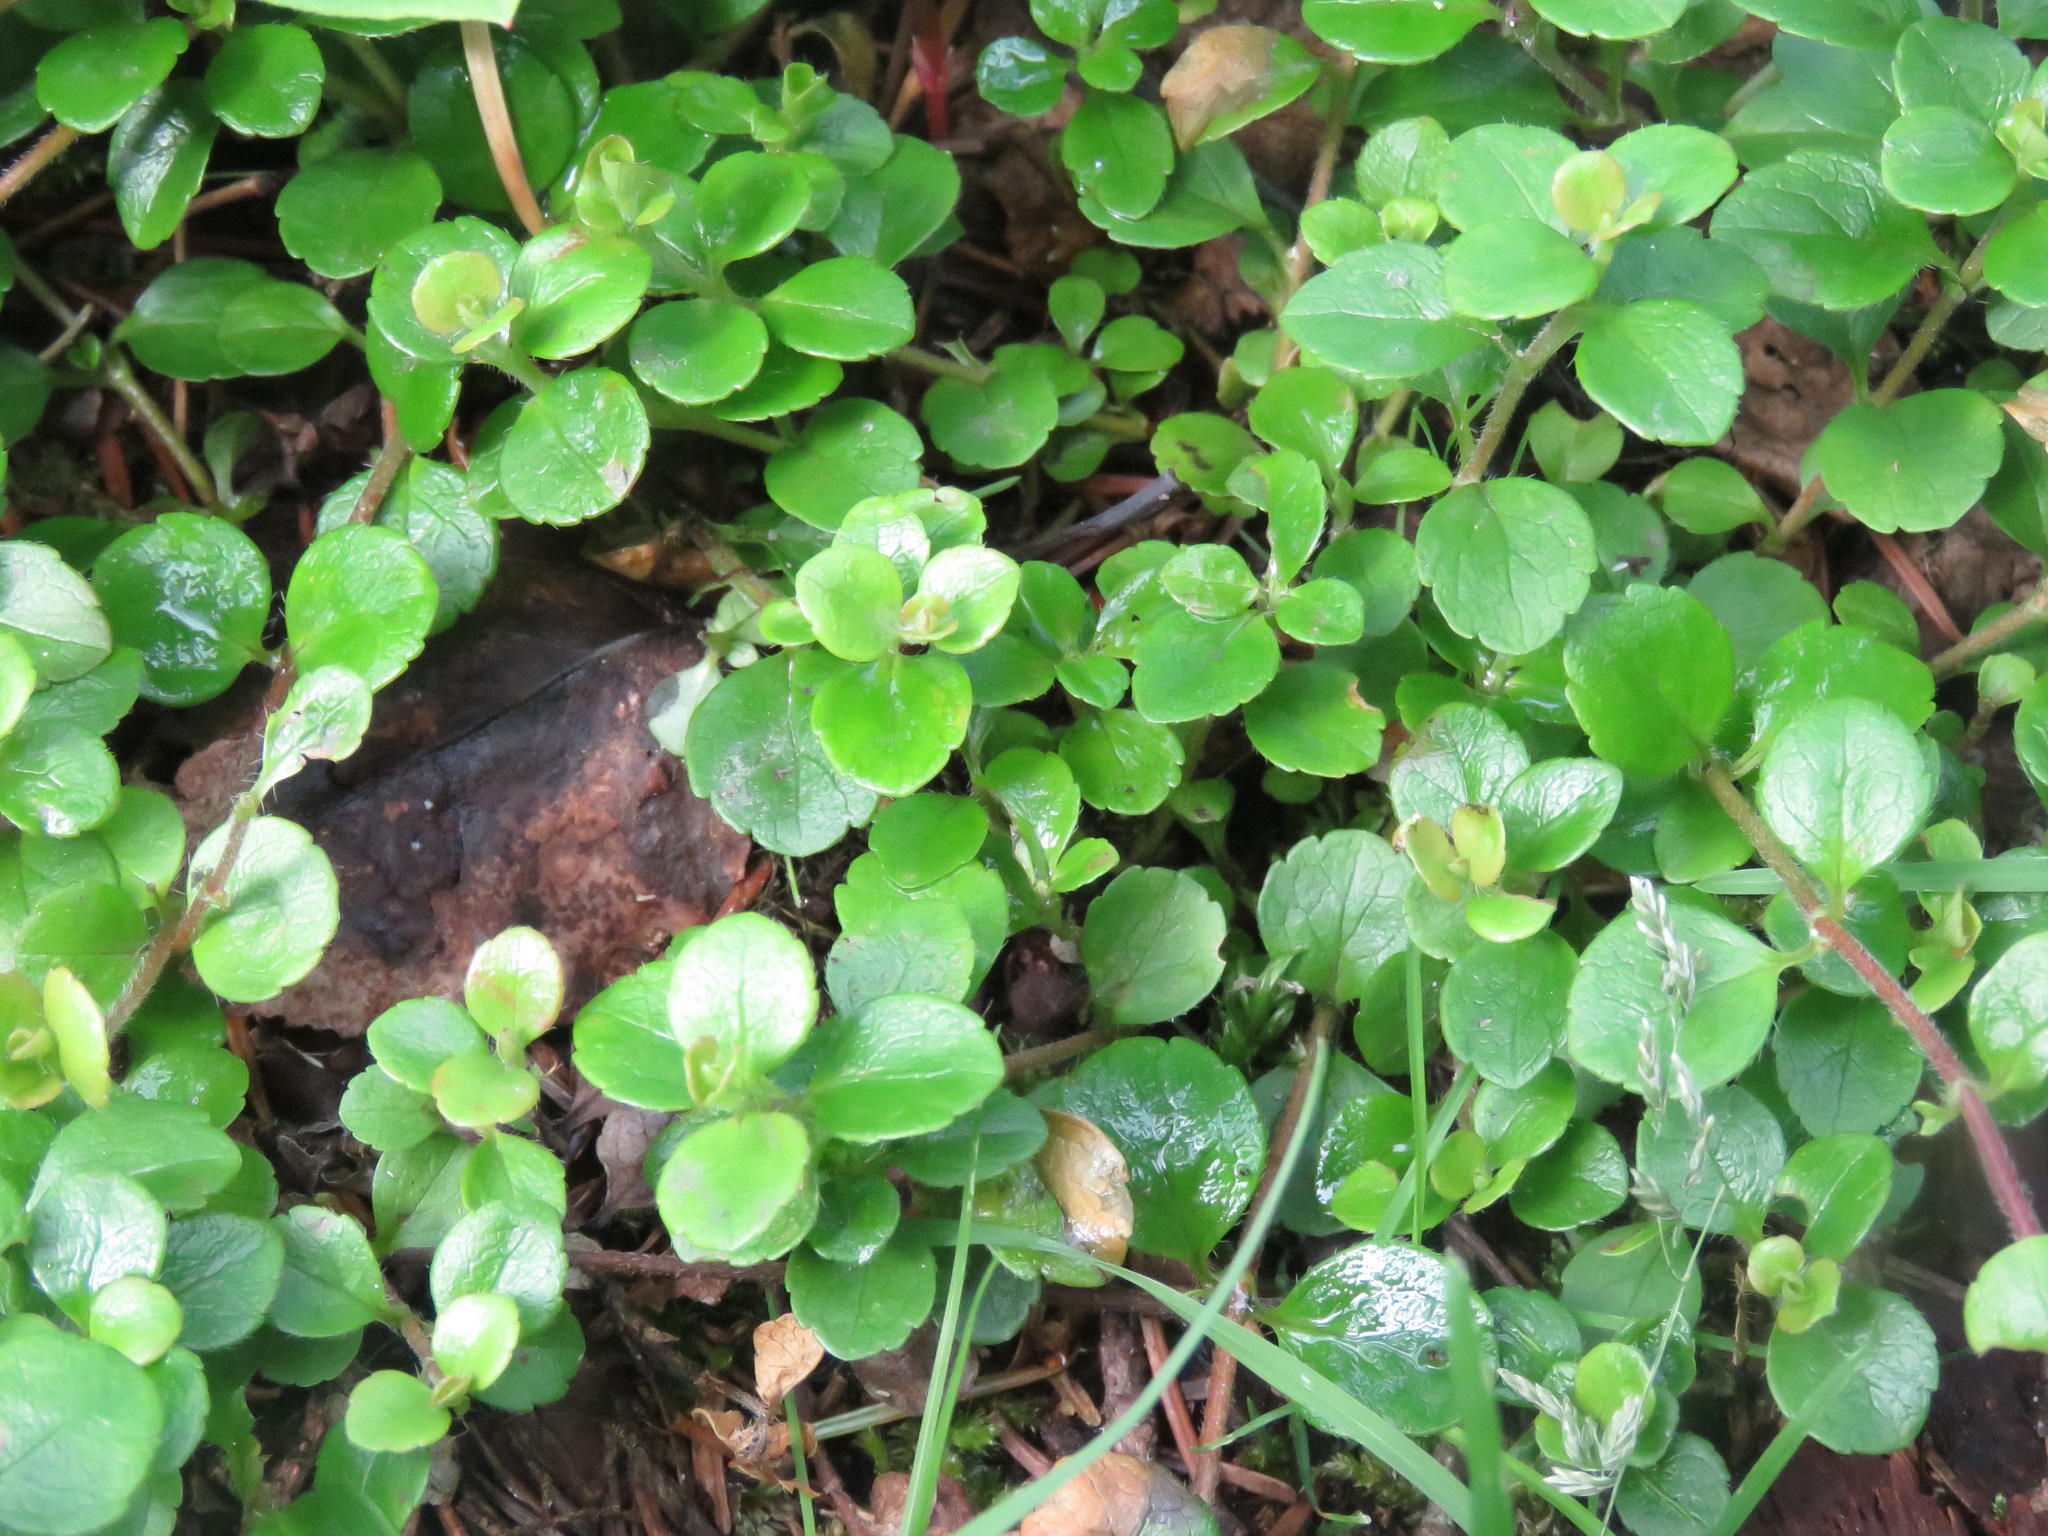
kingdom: Plantae
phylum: Tracheophyta
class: Magnoliopsida
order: Dipsacales
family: Caprifoliaceae
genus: Linnaea
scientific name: Linnaea borealis
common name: Twinflower
